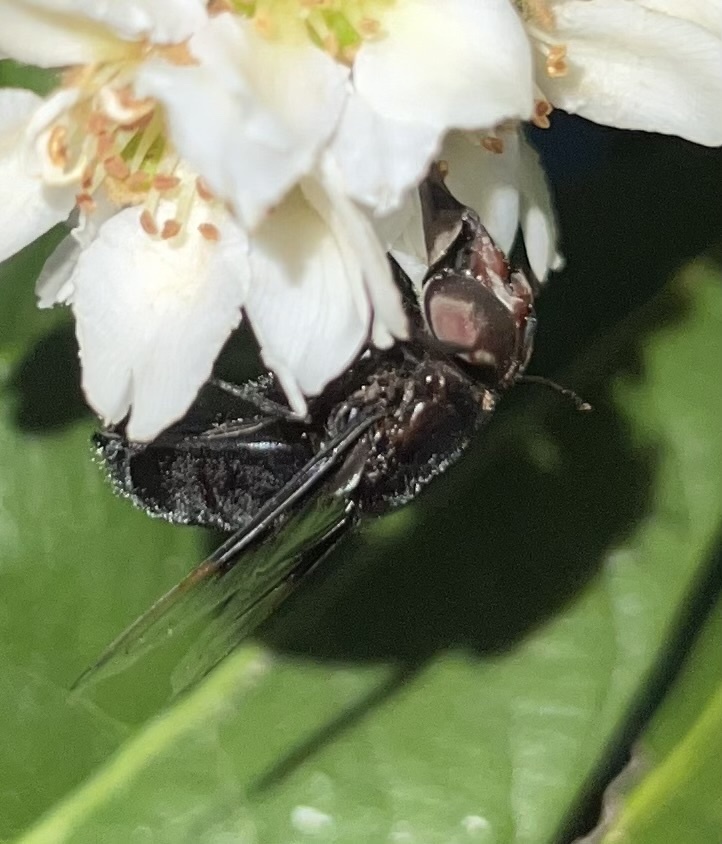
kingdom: Animalia
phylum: Arthropoda
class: Insecta
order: Diptera
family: Syrphidae
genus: Copestylum
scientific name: Copestylum
